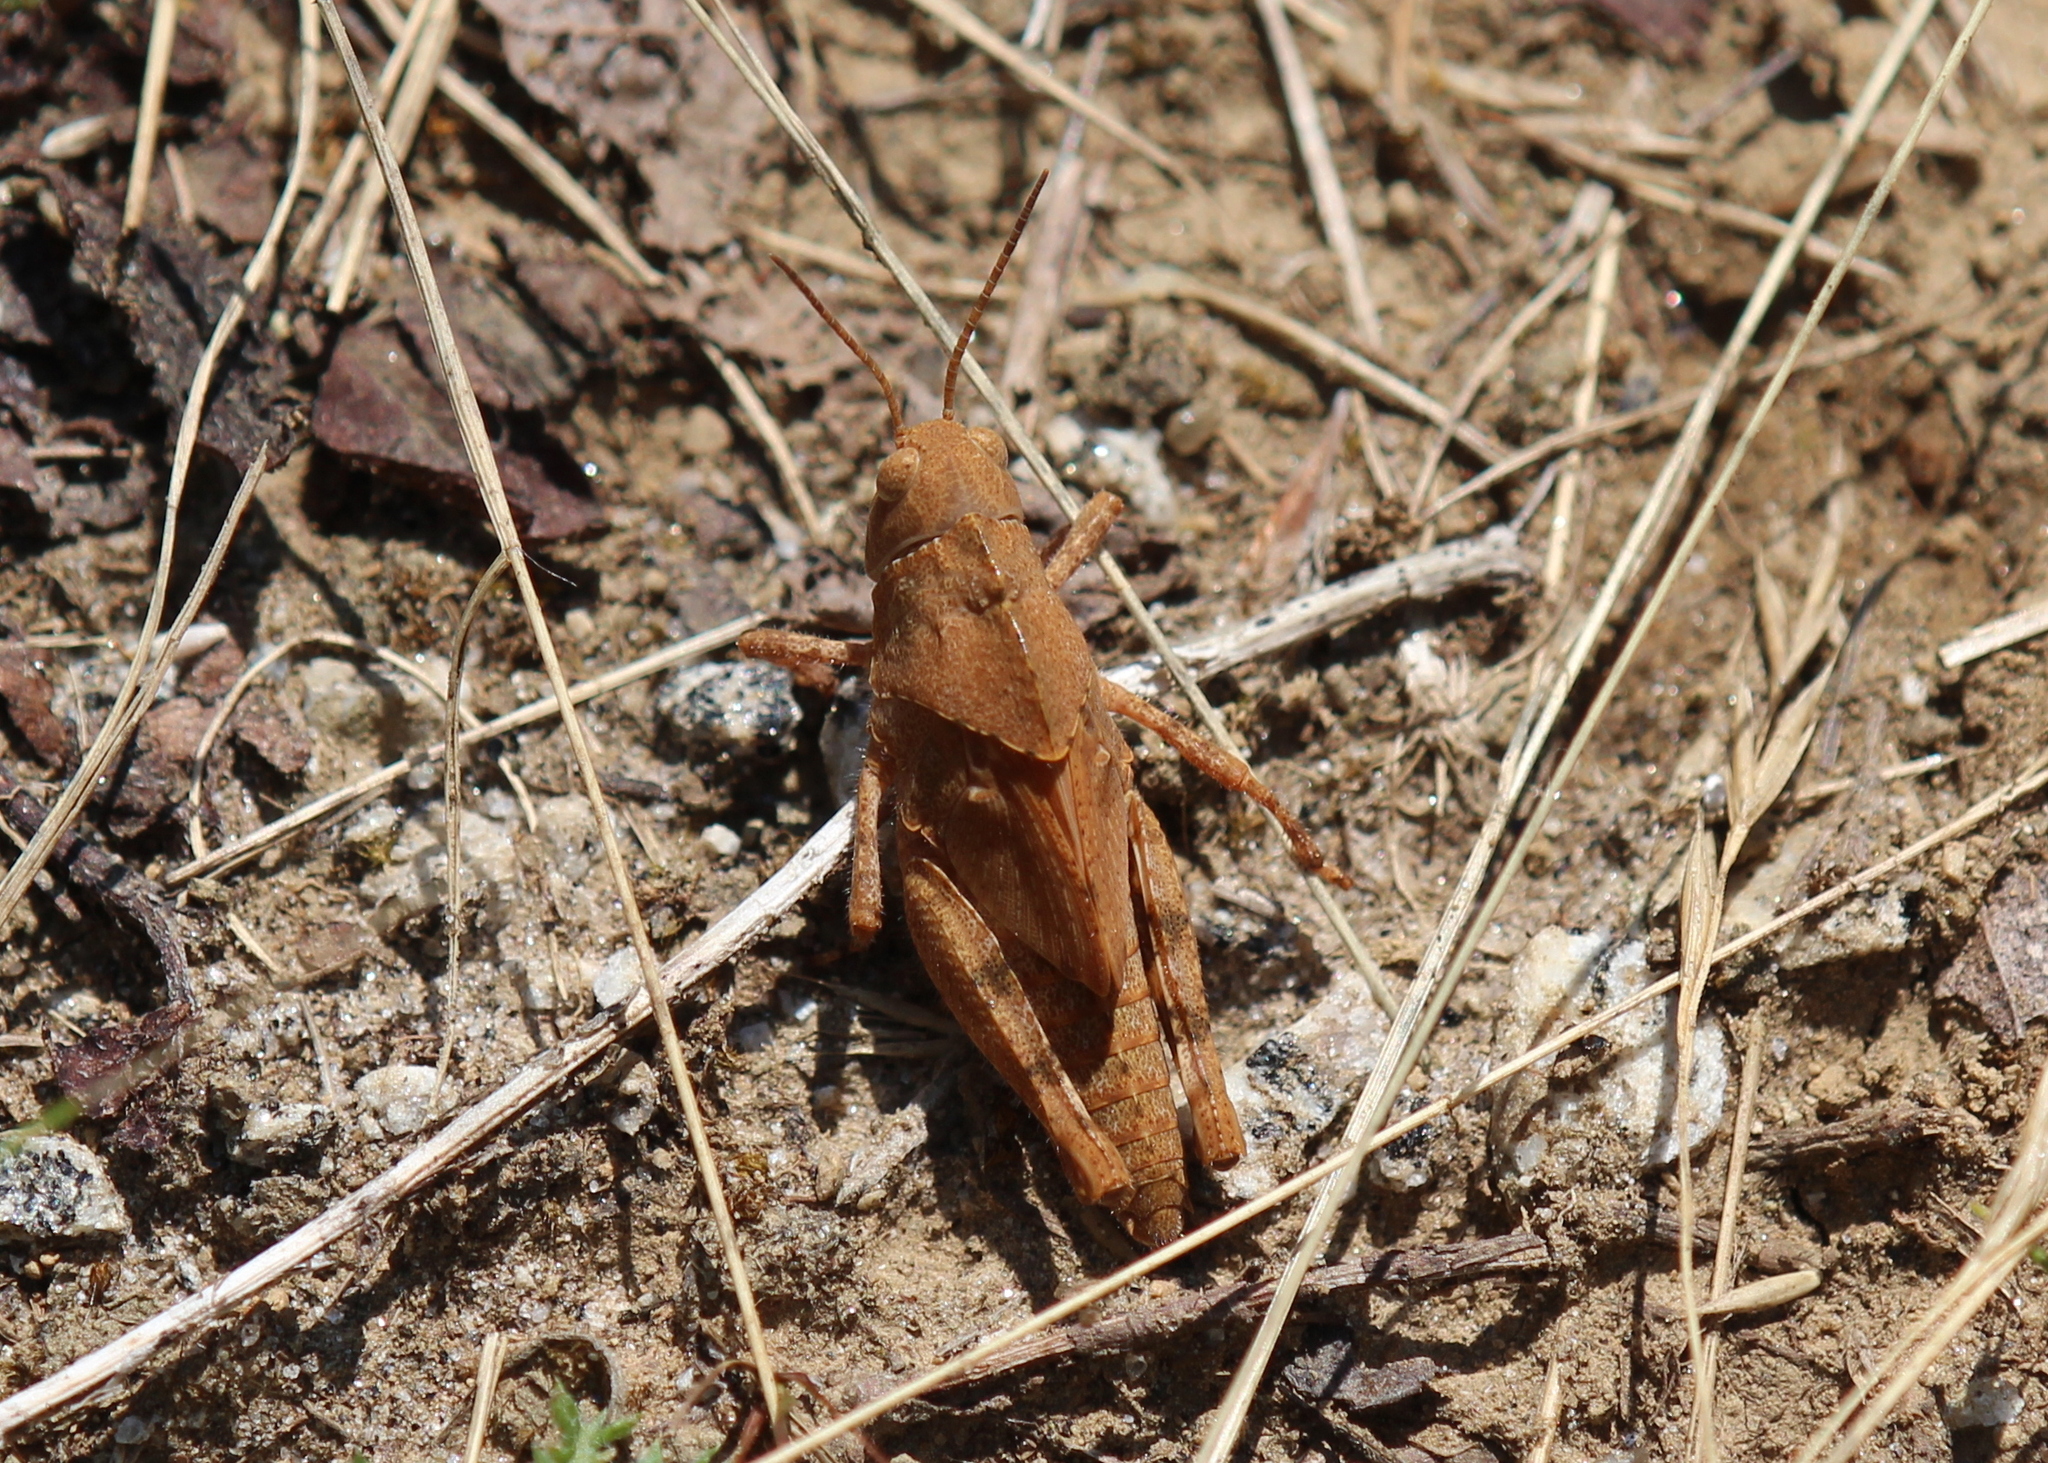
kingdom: Animalia
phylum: Arthropoda
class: Insecta
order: Orthoptera
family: Acrididae
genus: Dissosteira
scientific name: Dissosteira carolina
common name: Carolina grasshopper
